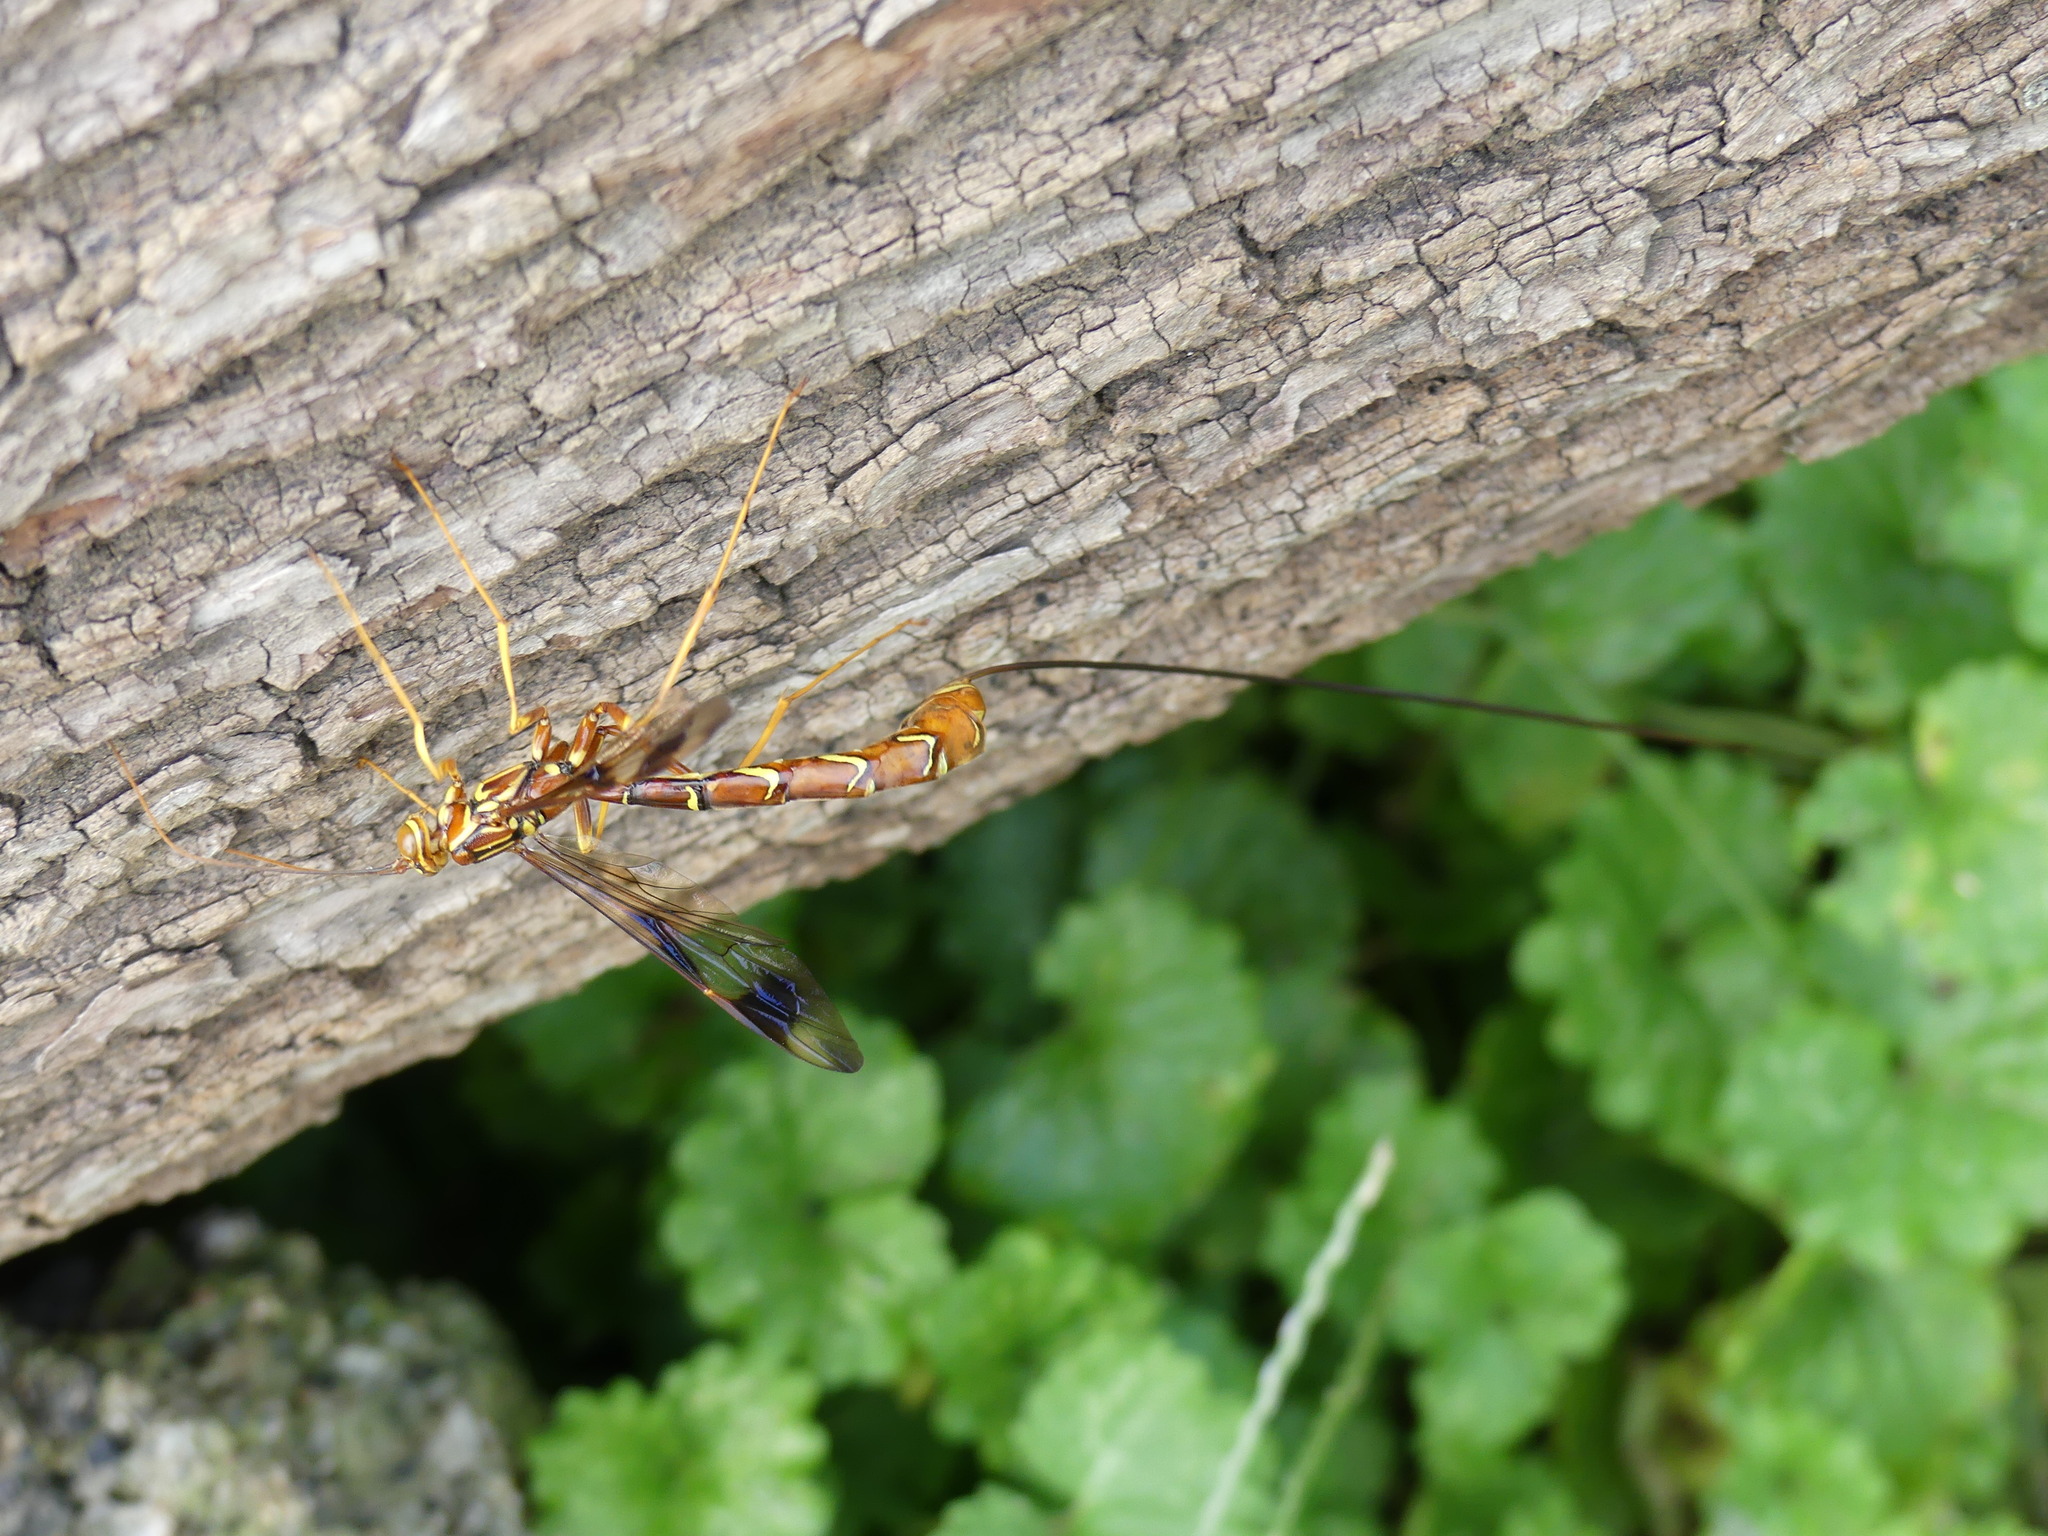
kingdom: Animalia
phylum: Arthropoda
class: Insecta
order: Hymenoptera
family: Ichneumonidae
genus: Megarhyssa
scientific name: Megarhyssa macrura
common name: Long-tailed giant ichneumonid wasp
